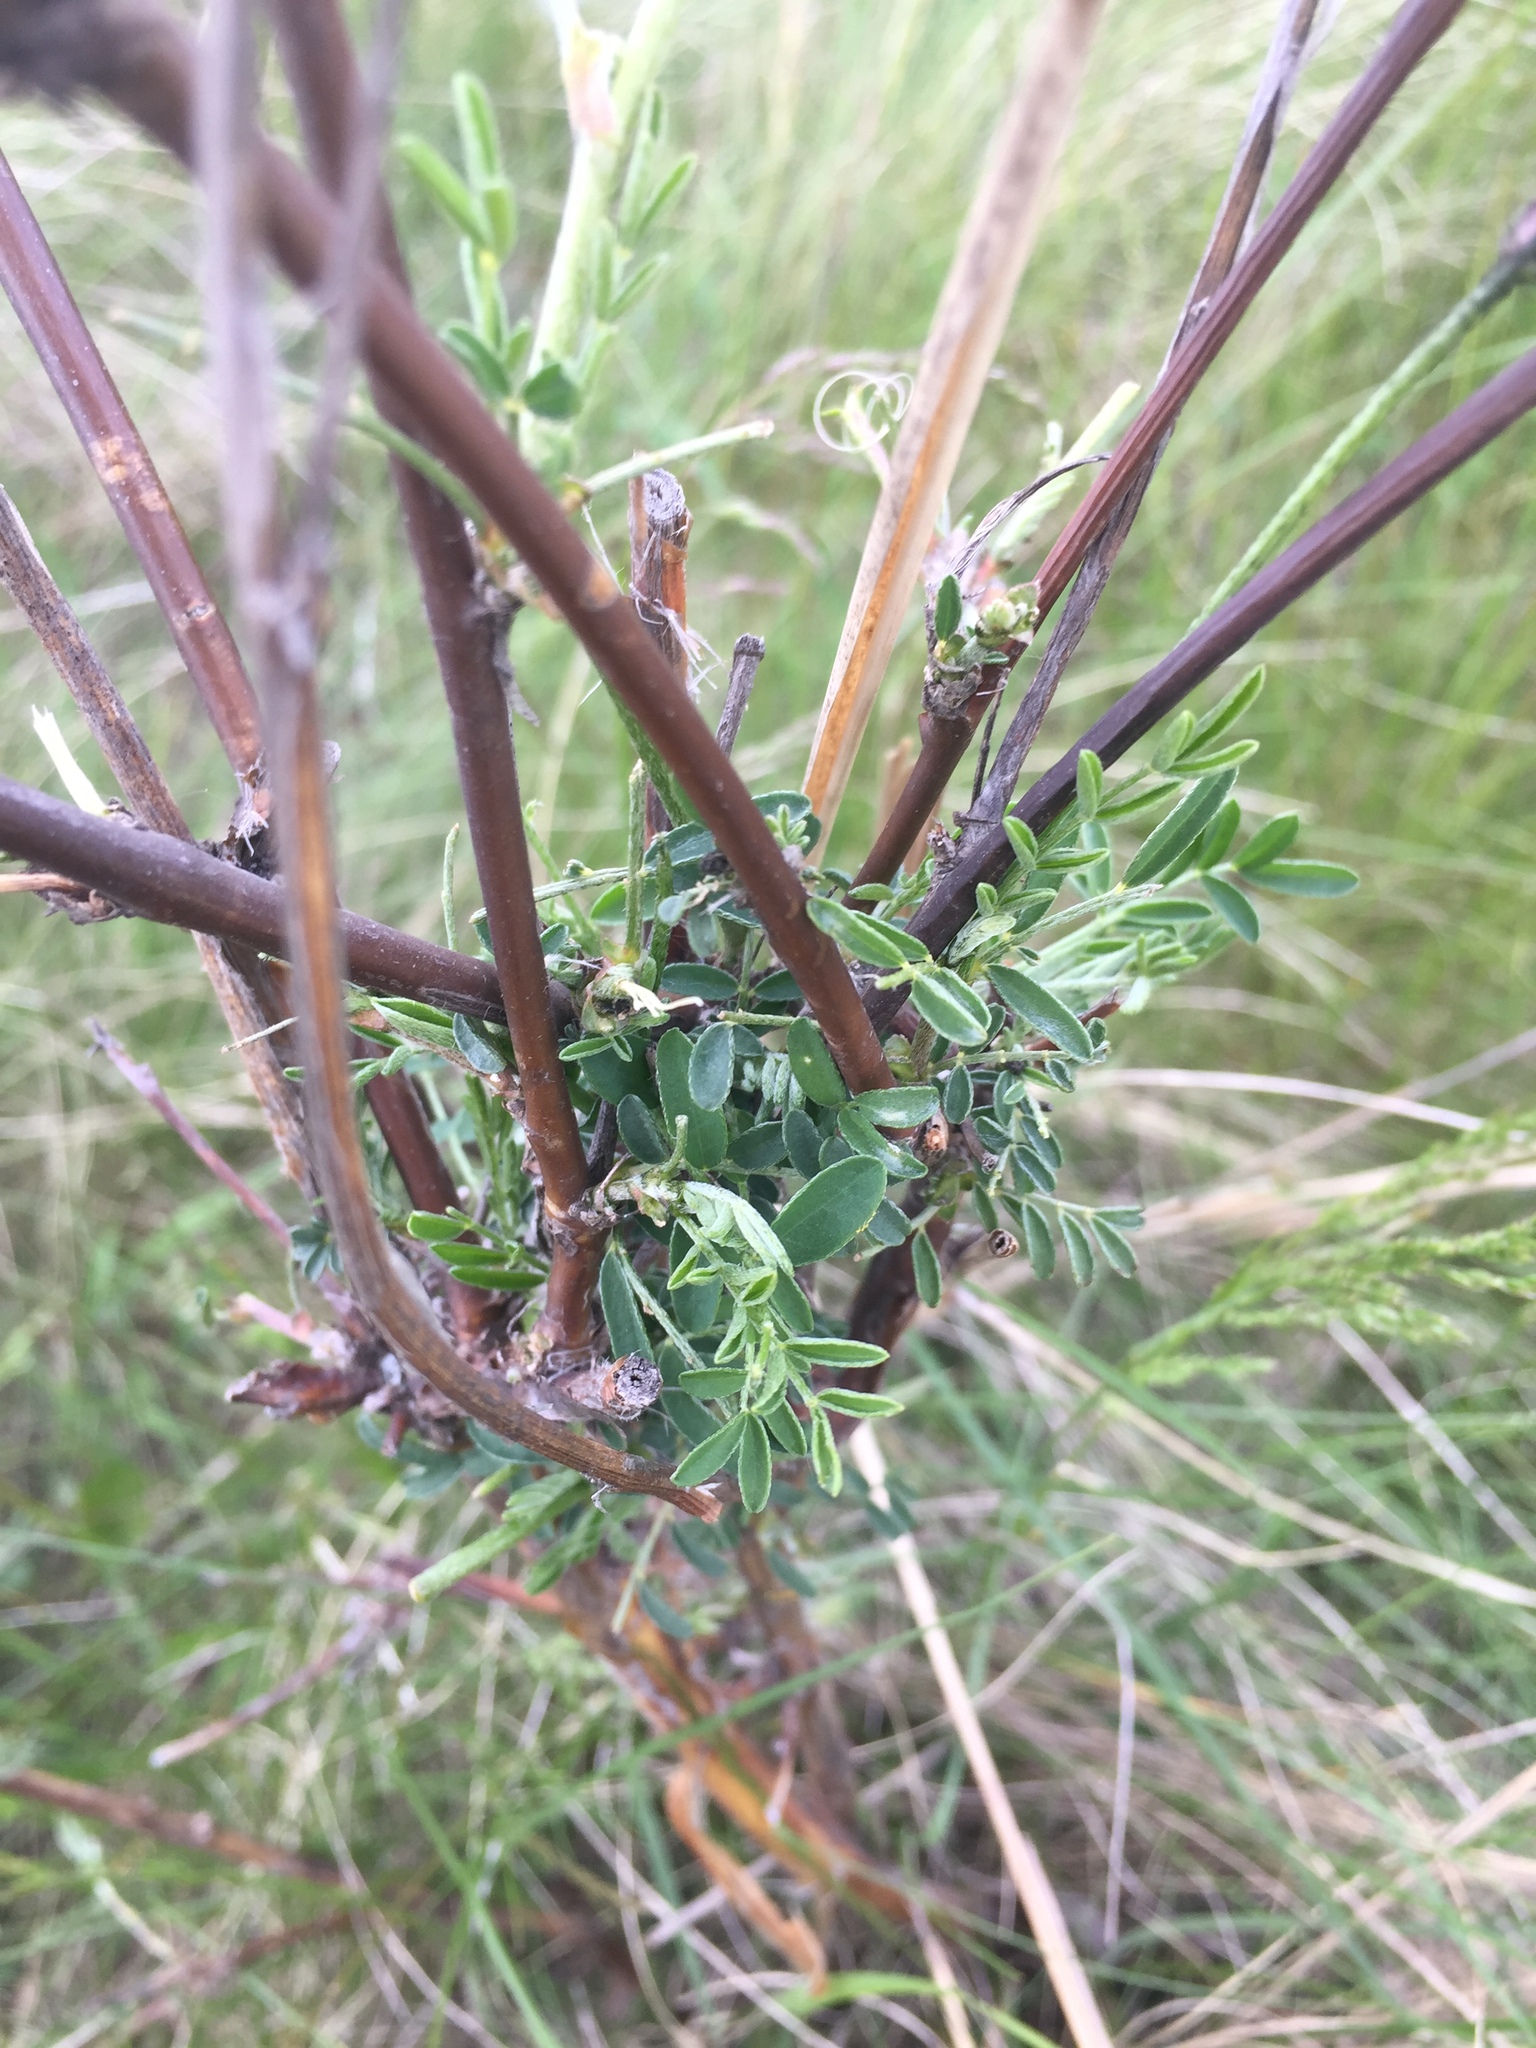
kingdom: Plantae
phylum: Tracheophyta
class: Magnoliopsida
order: Fabales
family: Fabaceae
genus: Astragalus
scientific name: Astragalus cornutus
